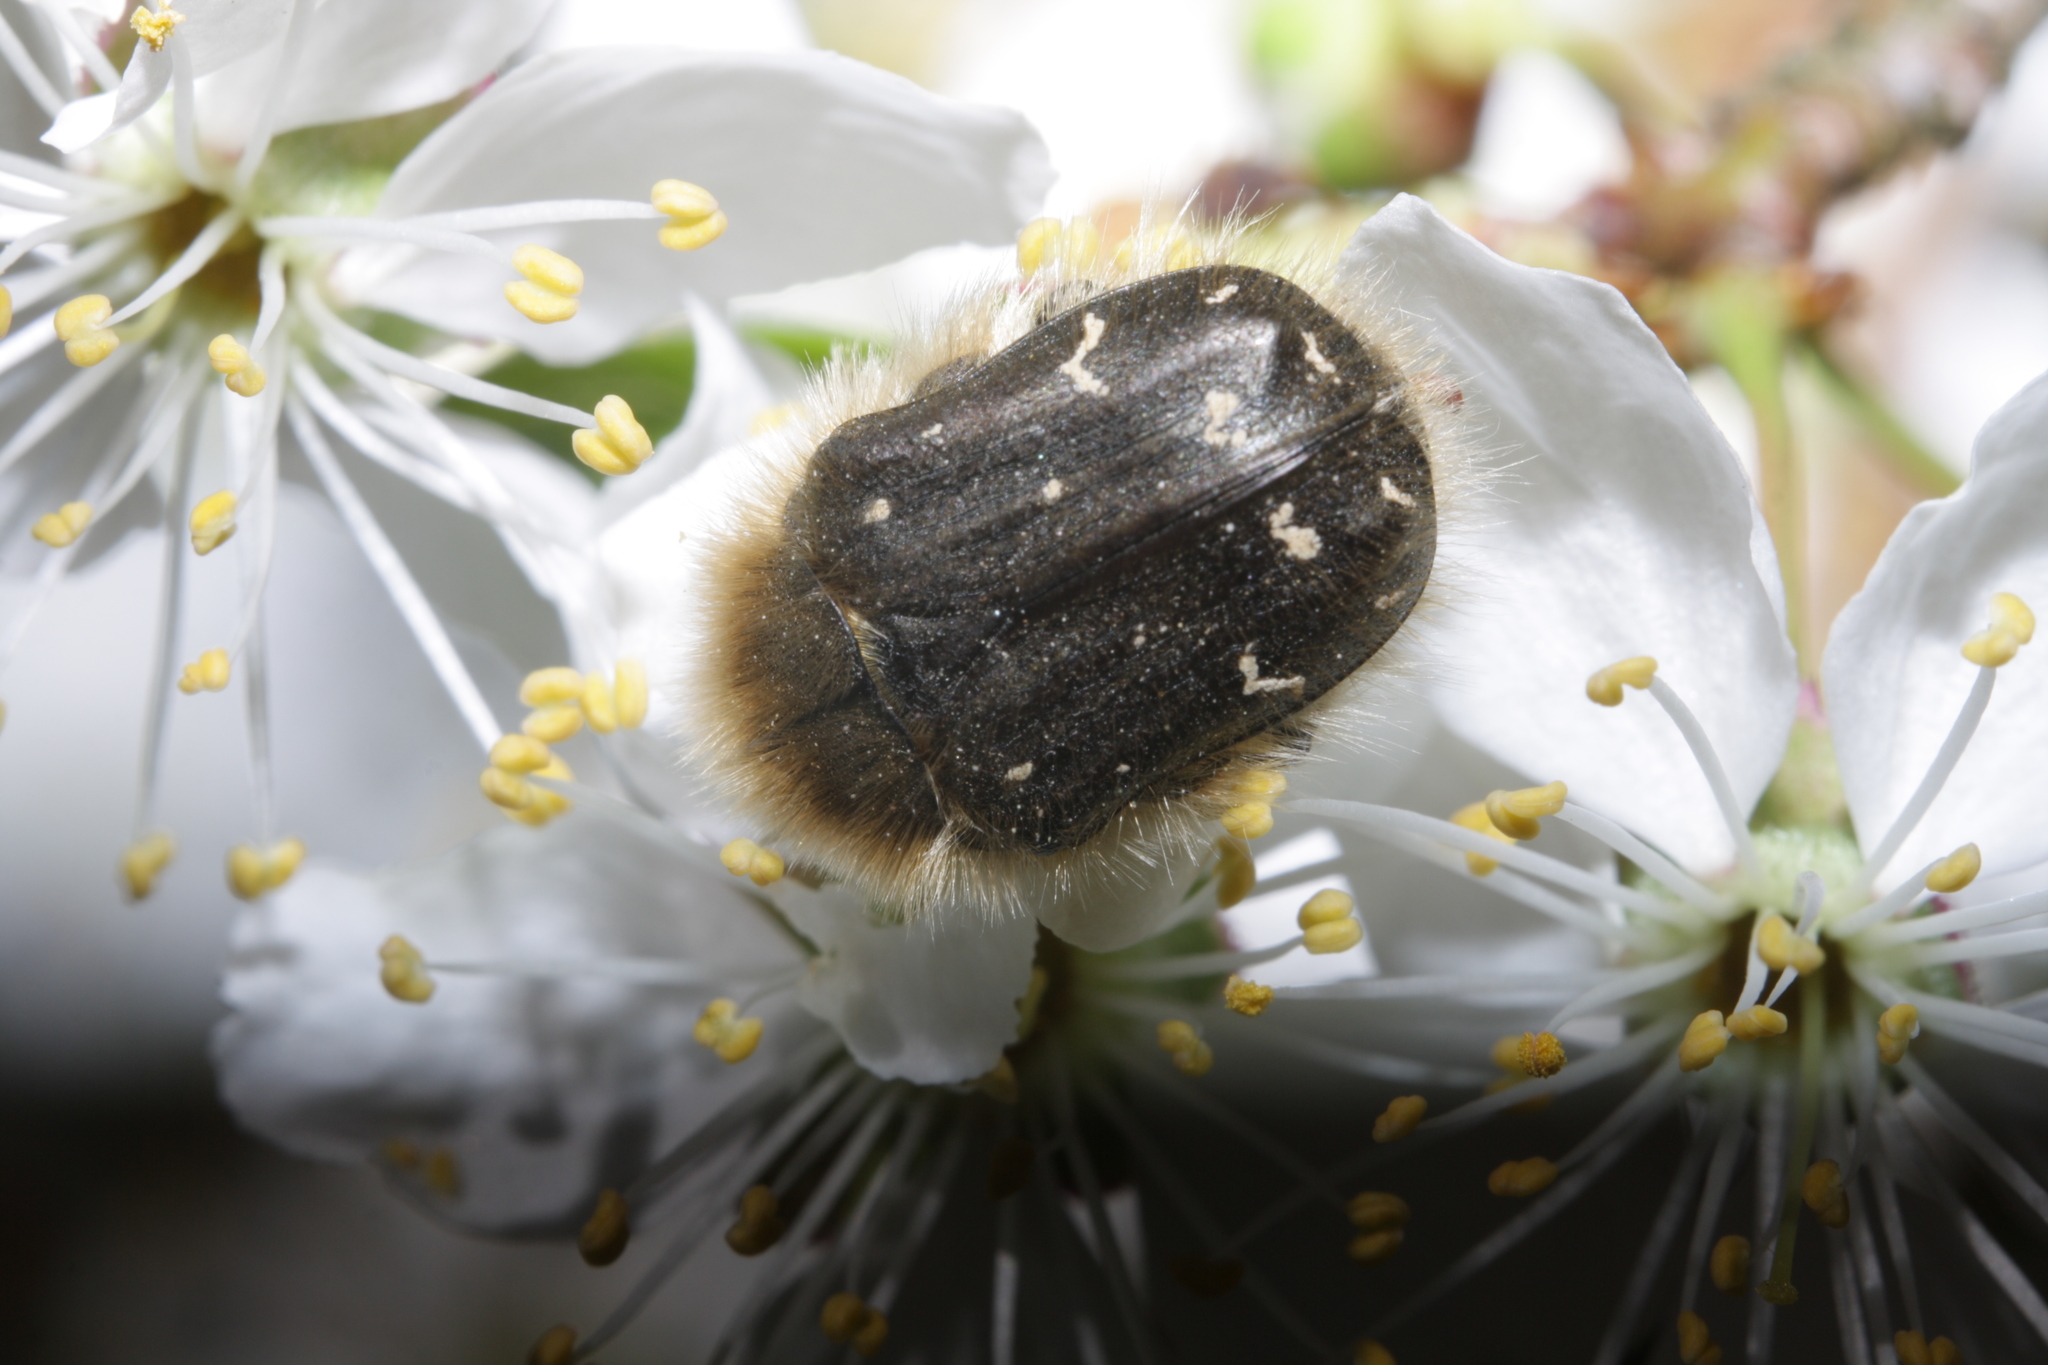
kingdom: Animalia
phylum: Arthropoda
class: Insecta
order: Coleoptera
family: Scarabaeidae
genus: Tropinota
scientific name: Tropinota hirta
